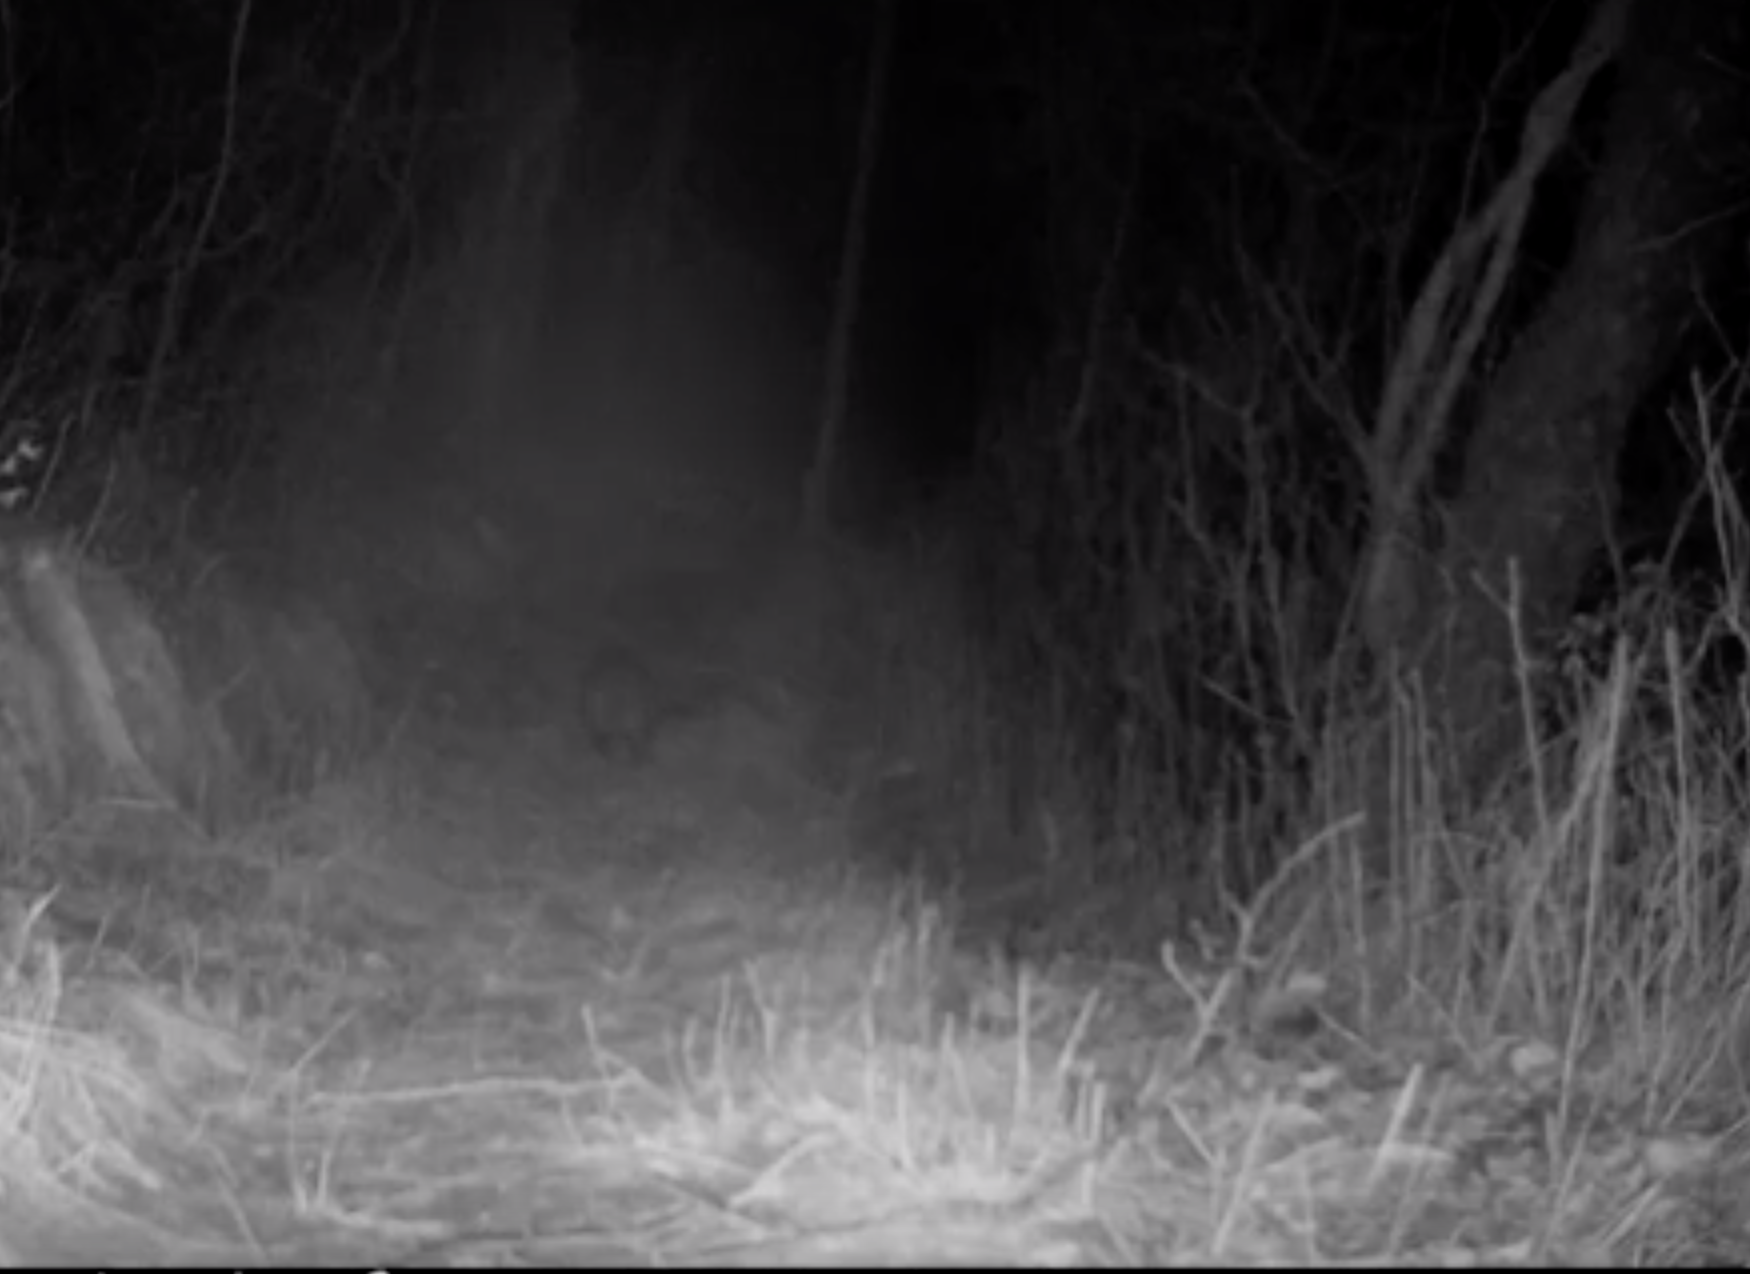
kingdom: Animalia
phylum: Chordata
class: Mammalia
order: Didelphimorphia
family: Didelphidae
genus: Didelphis
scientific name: Didelphis virginiana
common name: Virginia opossum
